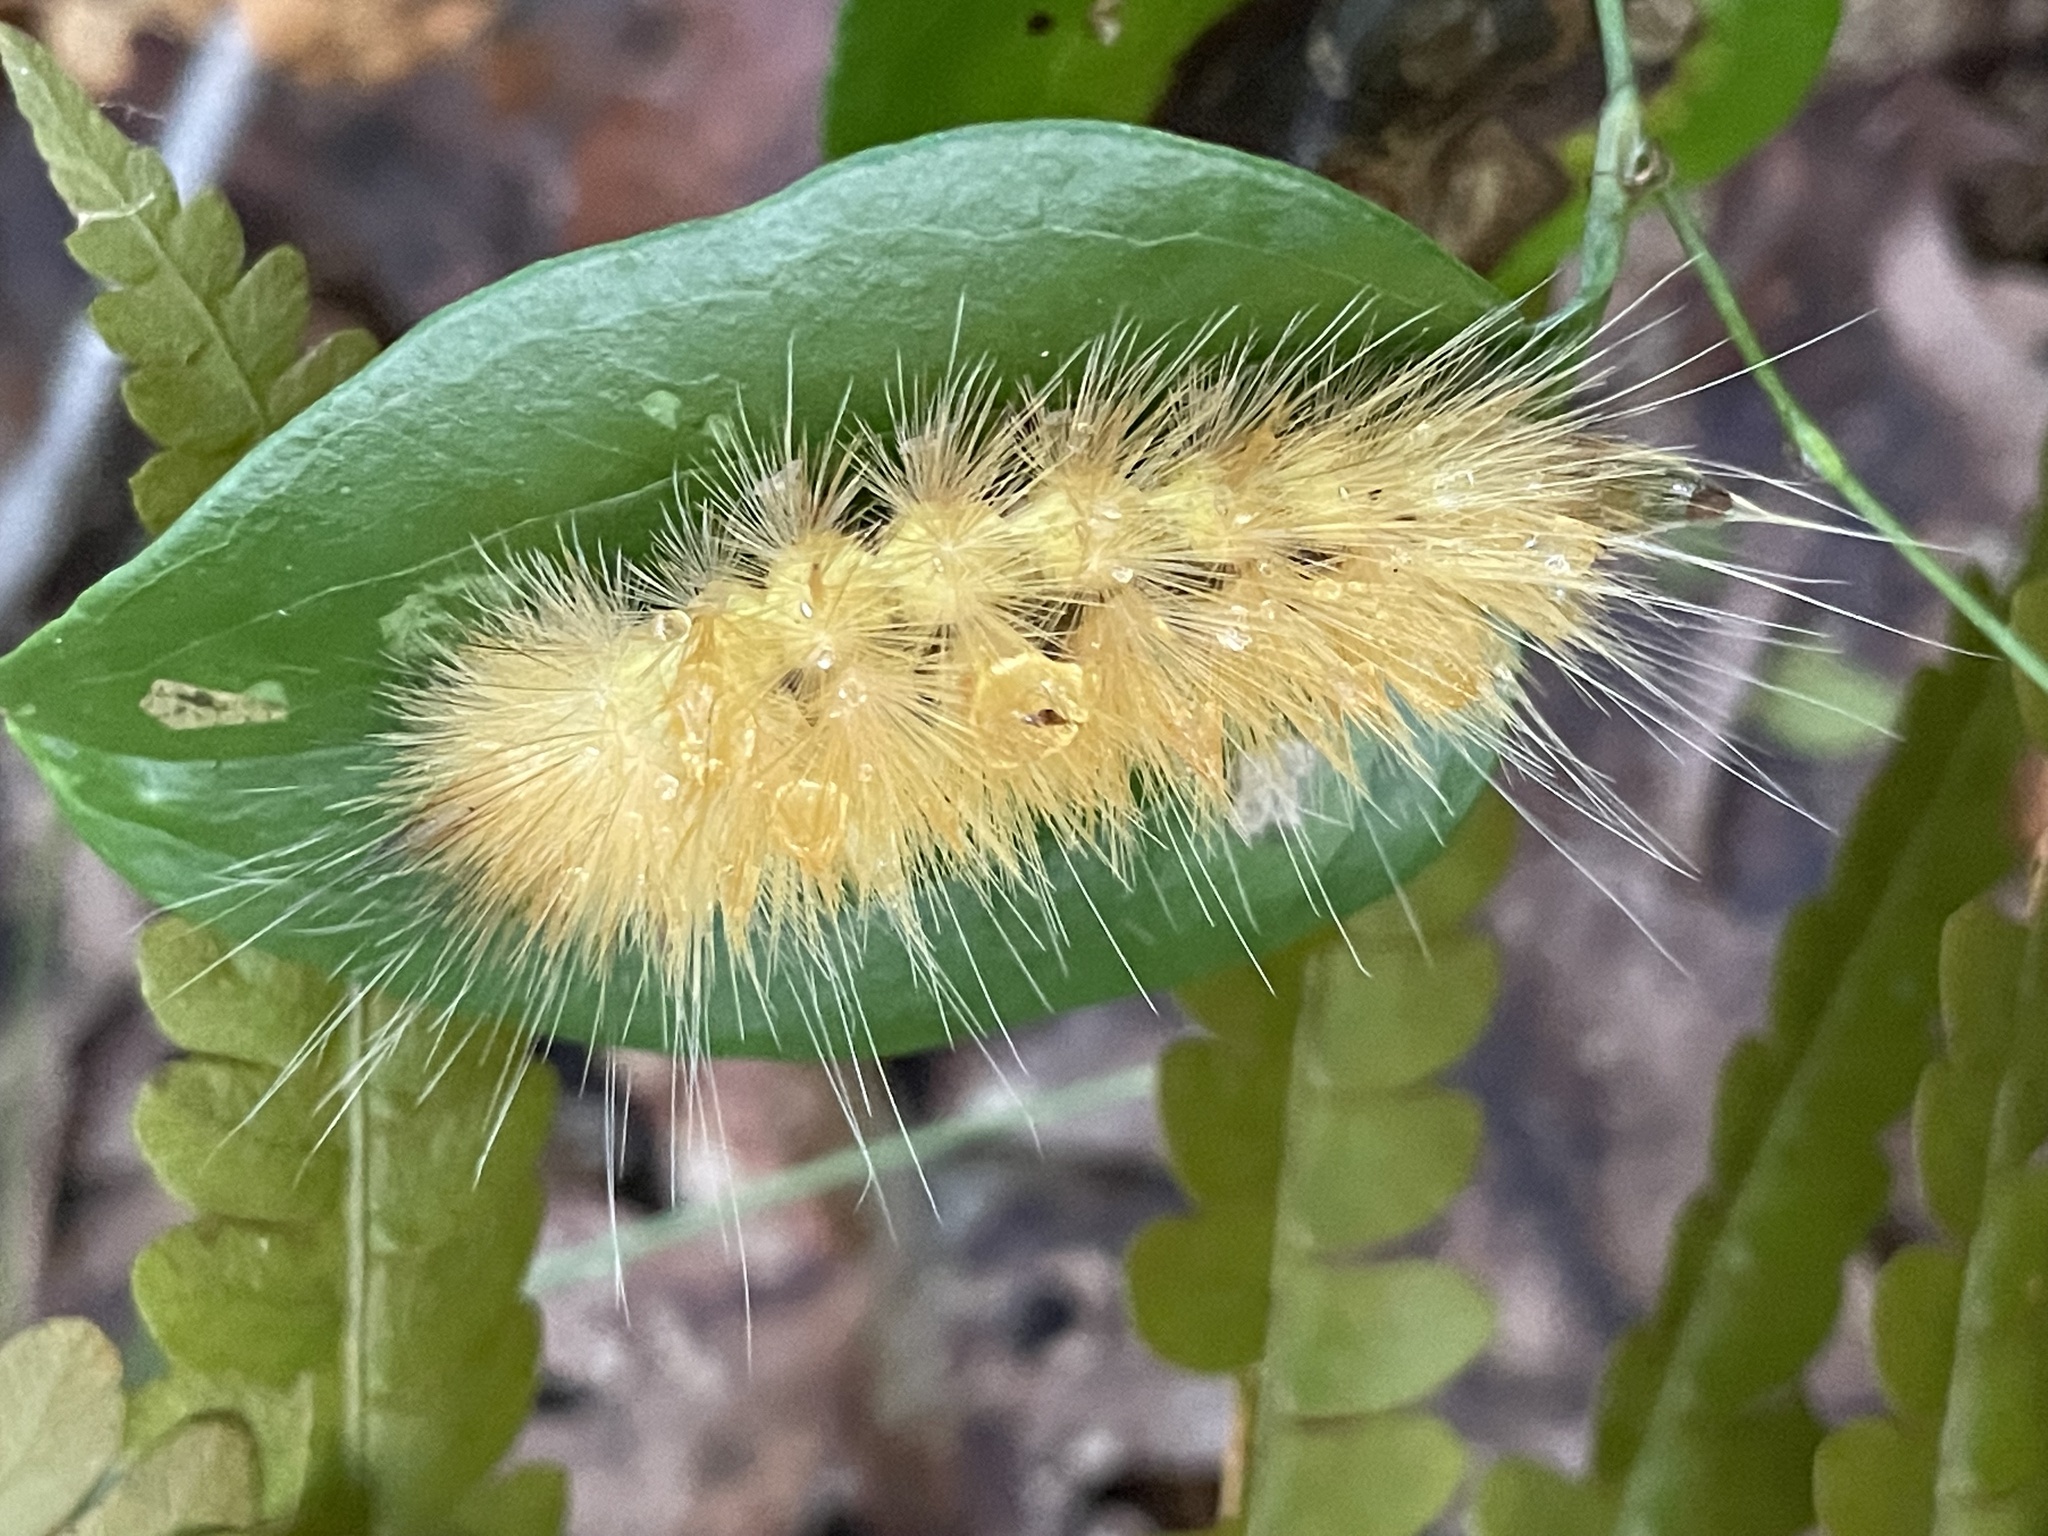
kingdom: Animalia
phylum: Arthropoda
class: Insecta
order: Lepidoptera
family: Erebidae
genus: Spilosoma
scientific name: Spilosoma virginica
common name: Virginia tiger moth
